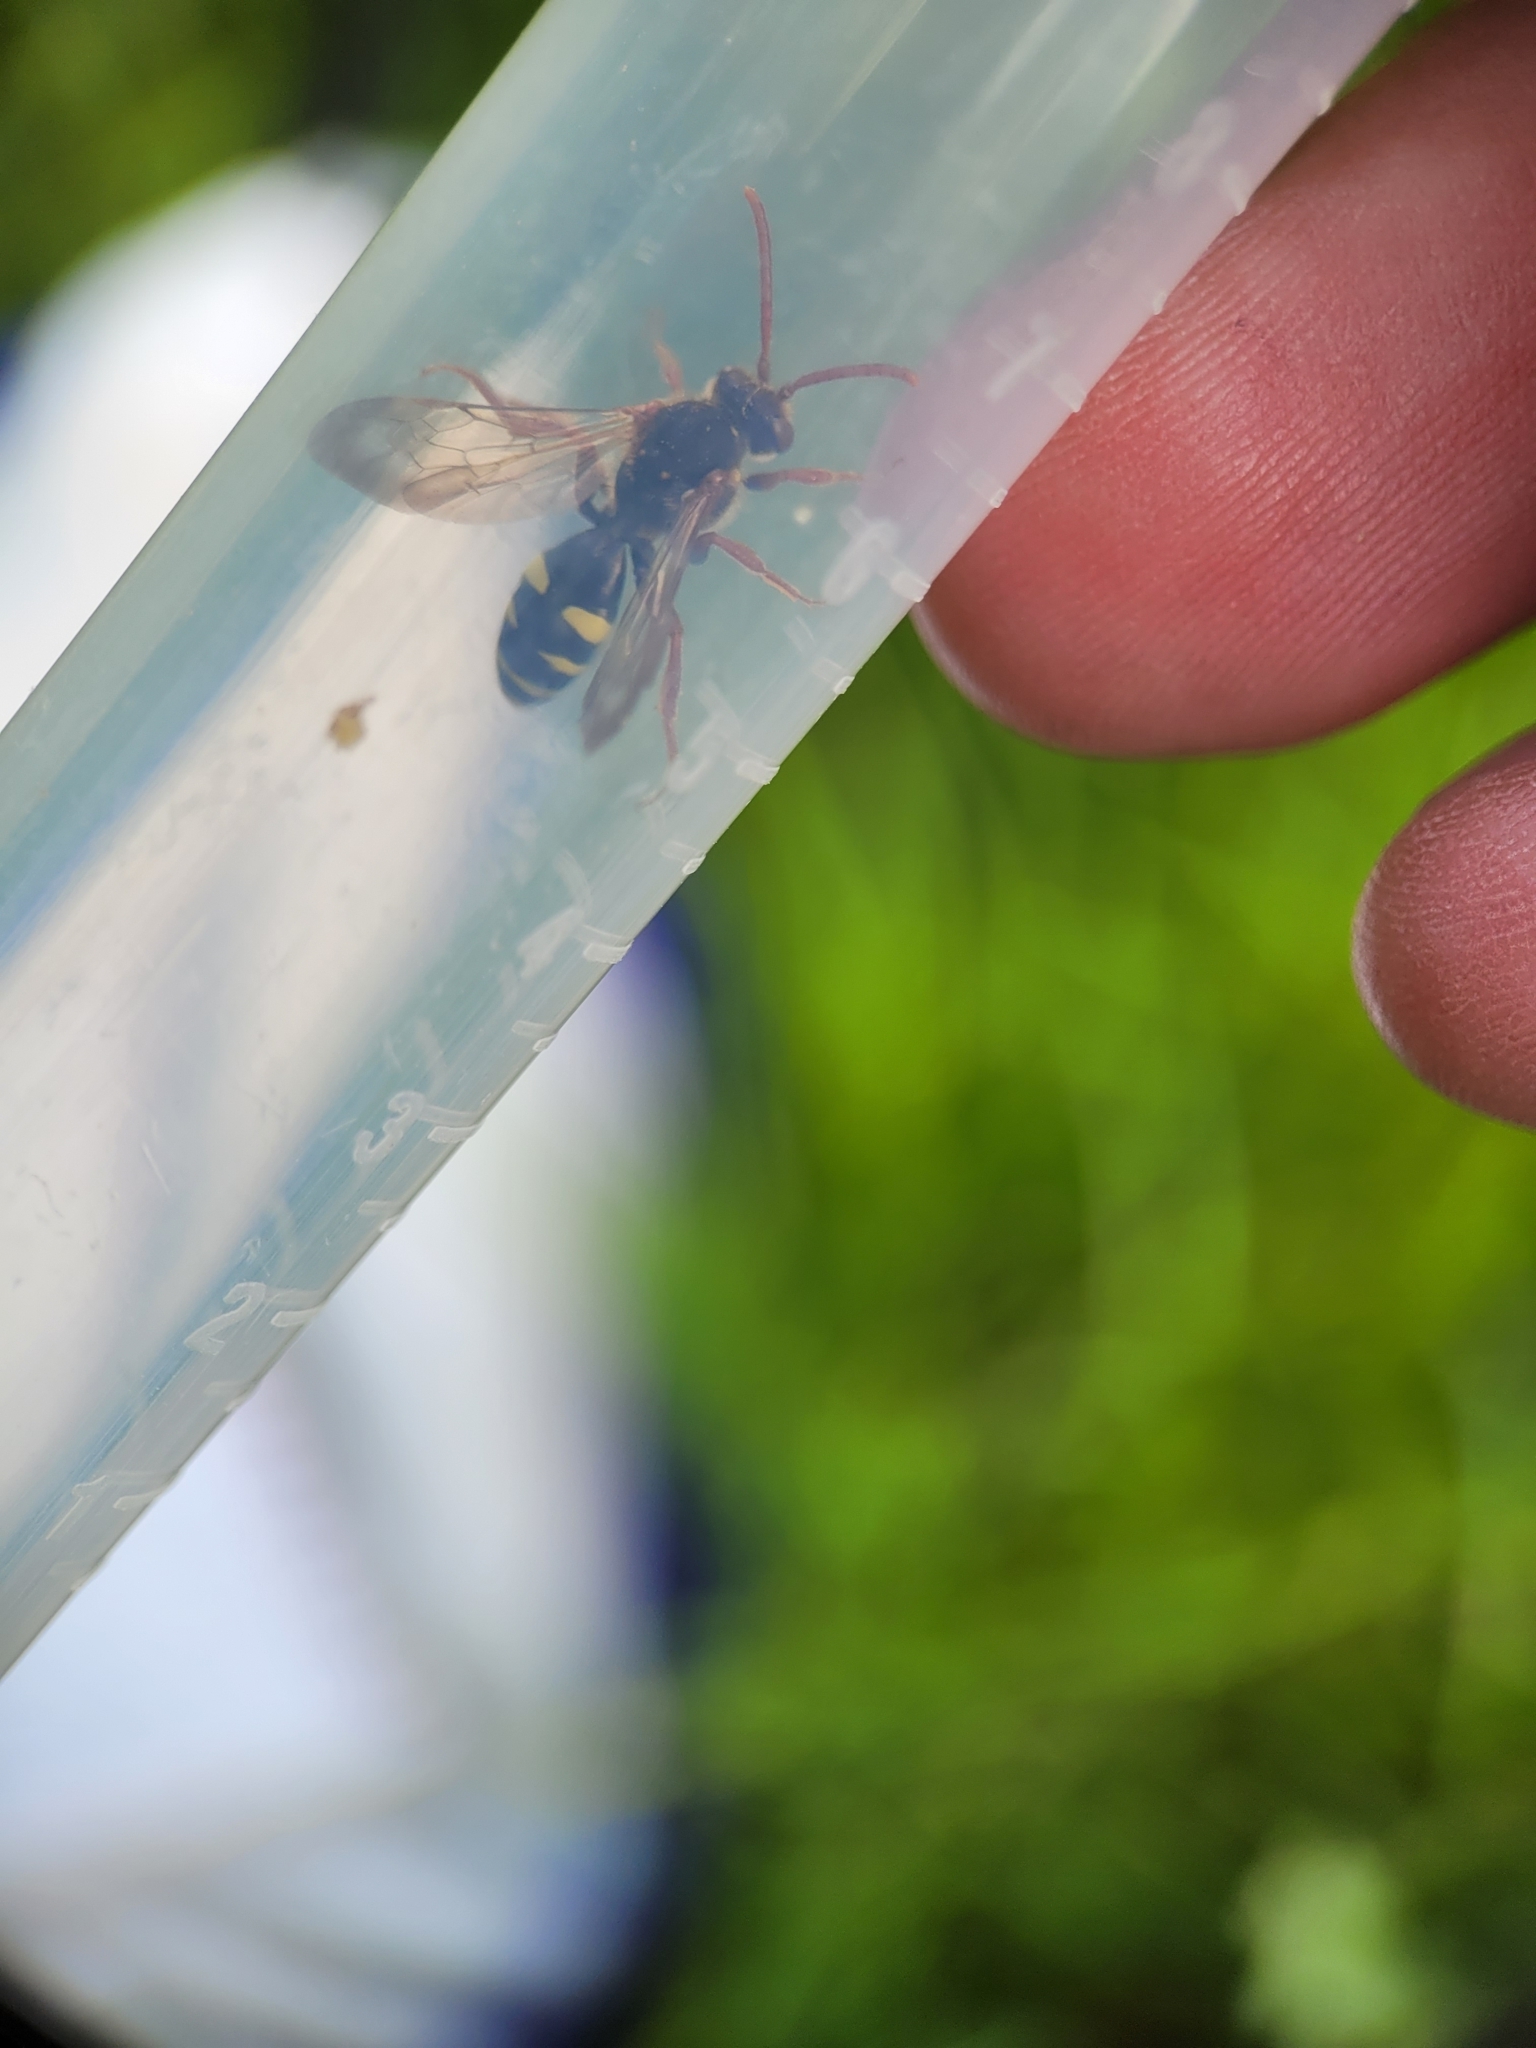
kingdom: Animalia
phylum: Arthropoda
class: Insecta
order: Hymenoptera
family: Apidae
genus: Nomada
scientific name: Nomada marshamella
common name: Marsham's nomad bee
